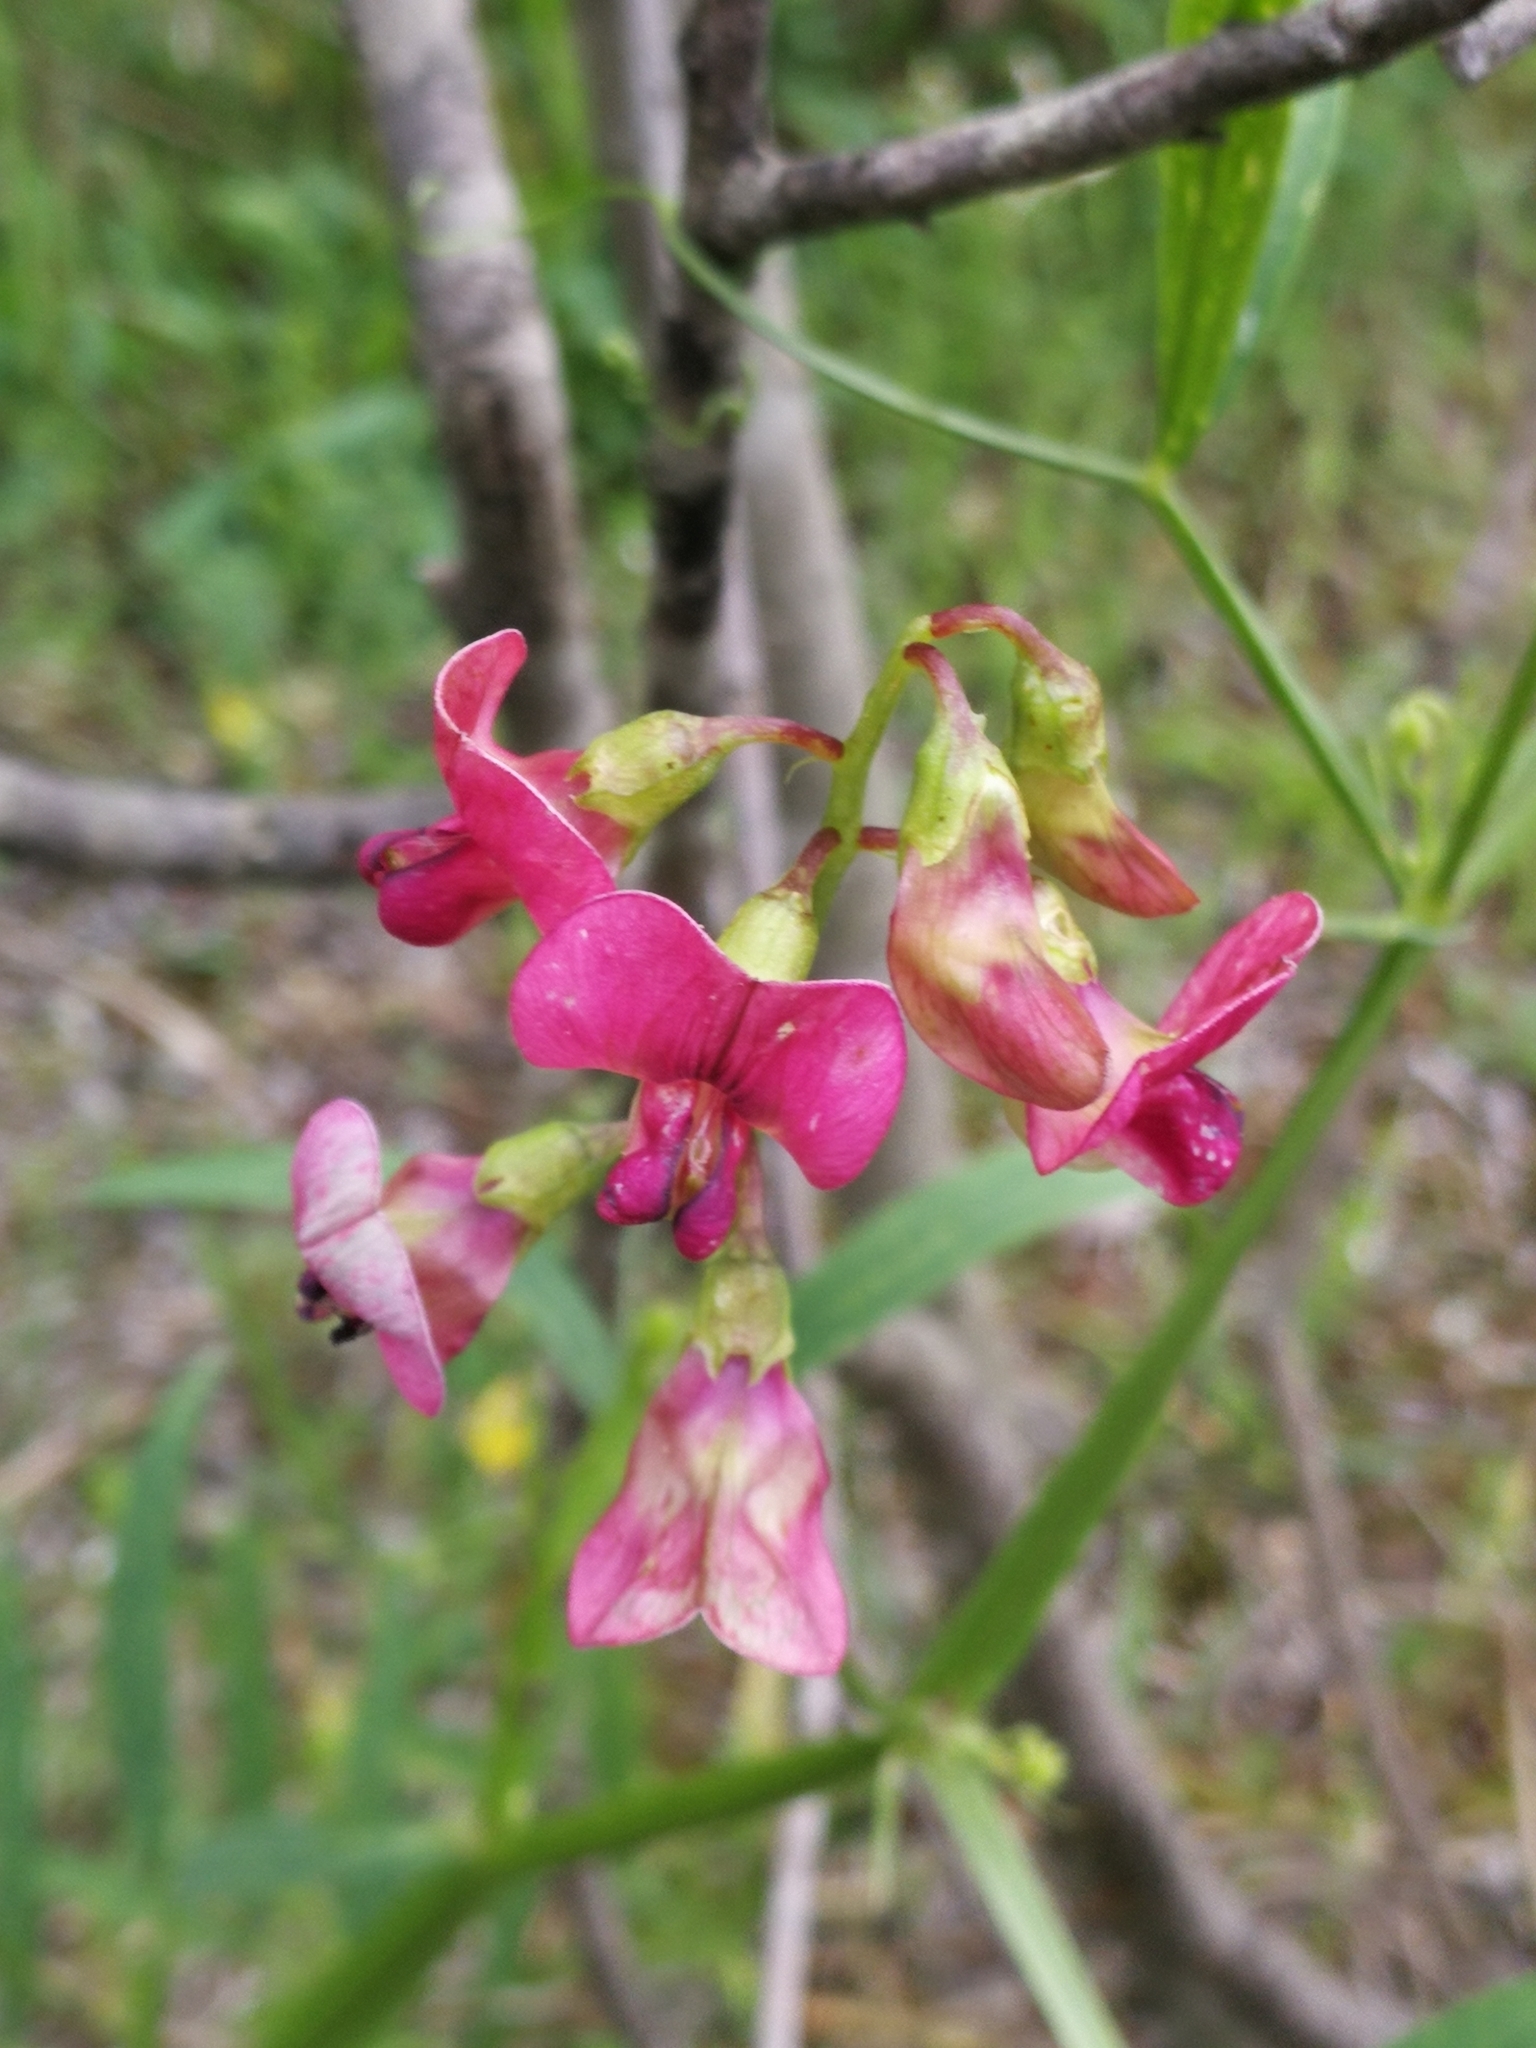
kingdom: Plantae
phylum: Tracheophyta
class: Magnoliopsida
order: Fabales
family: Fabaceae
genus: Lathyrus
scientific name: Lathyrus sylvestris
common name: Flat pea
